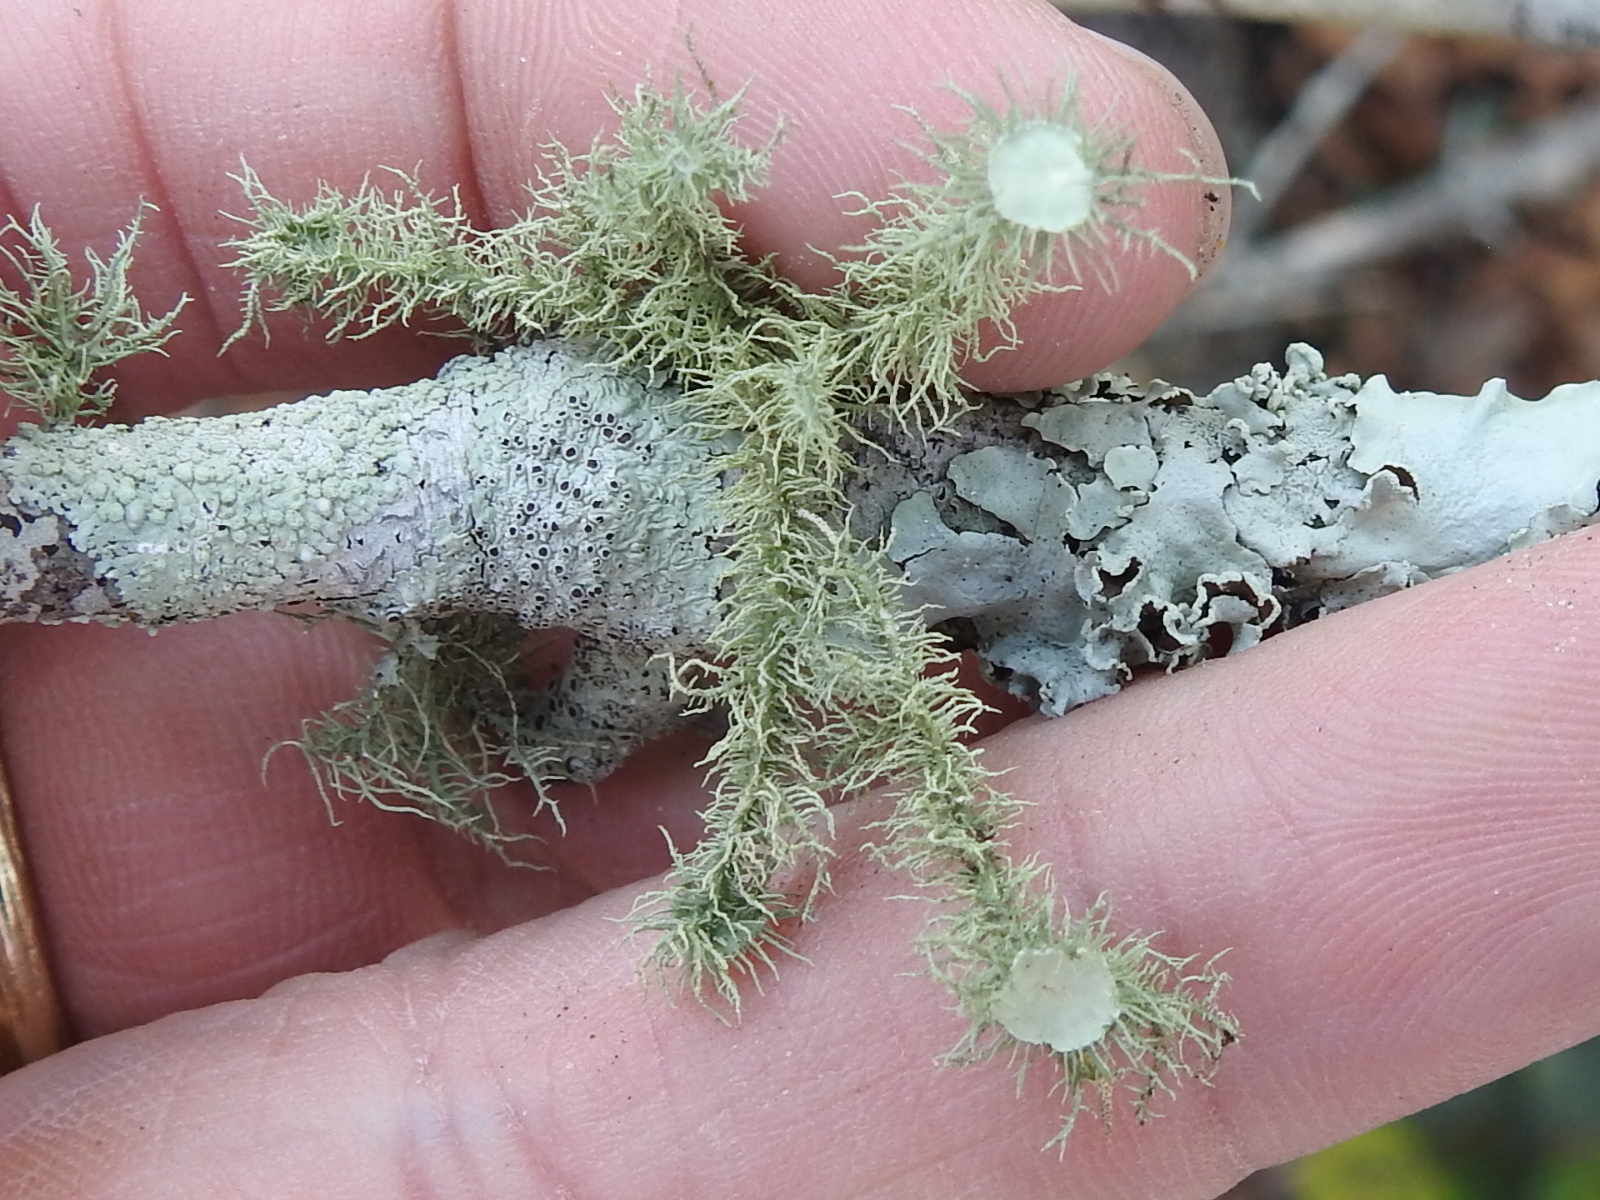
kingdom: Fungi
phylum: Ascomycota
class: Lecanoromycetes
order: Lecanorales
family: Parmeliaceae
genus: Usnea
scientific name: Usnea strigosa
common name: Bushy beard lichen
